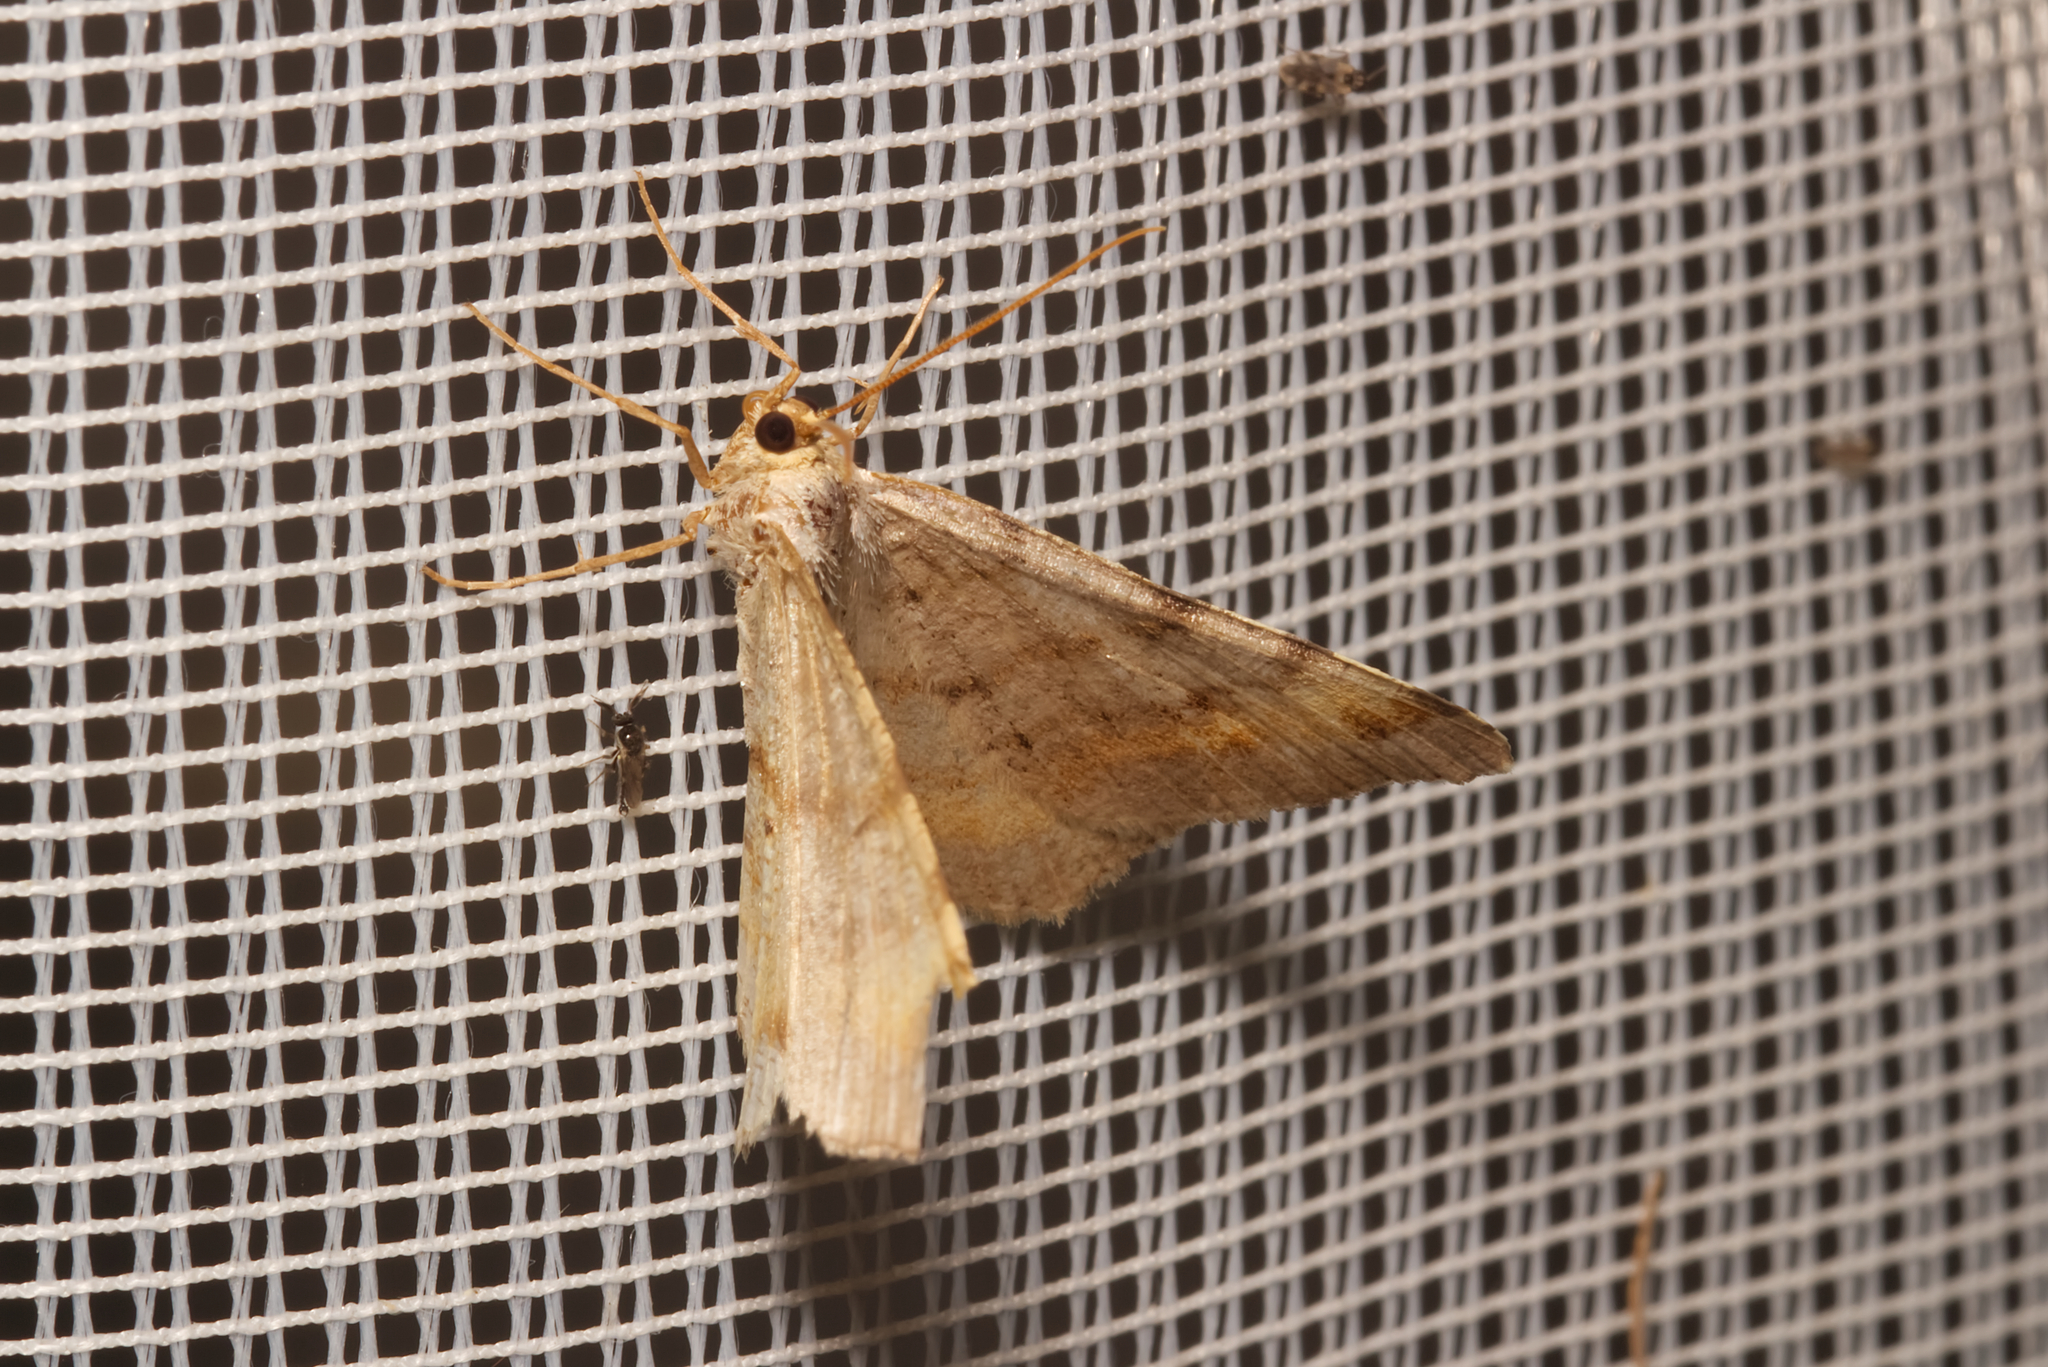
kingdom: Animalia
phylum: Arthropoda
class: Insecta
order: Lepidoptera
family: Geometridae
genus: Macaria
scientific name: Macaria liturata
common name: Tawny-barred angle
